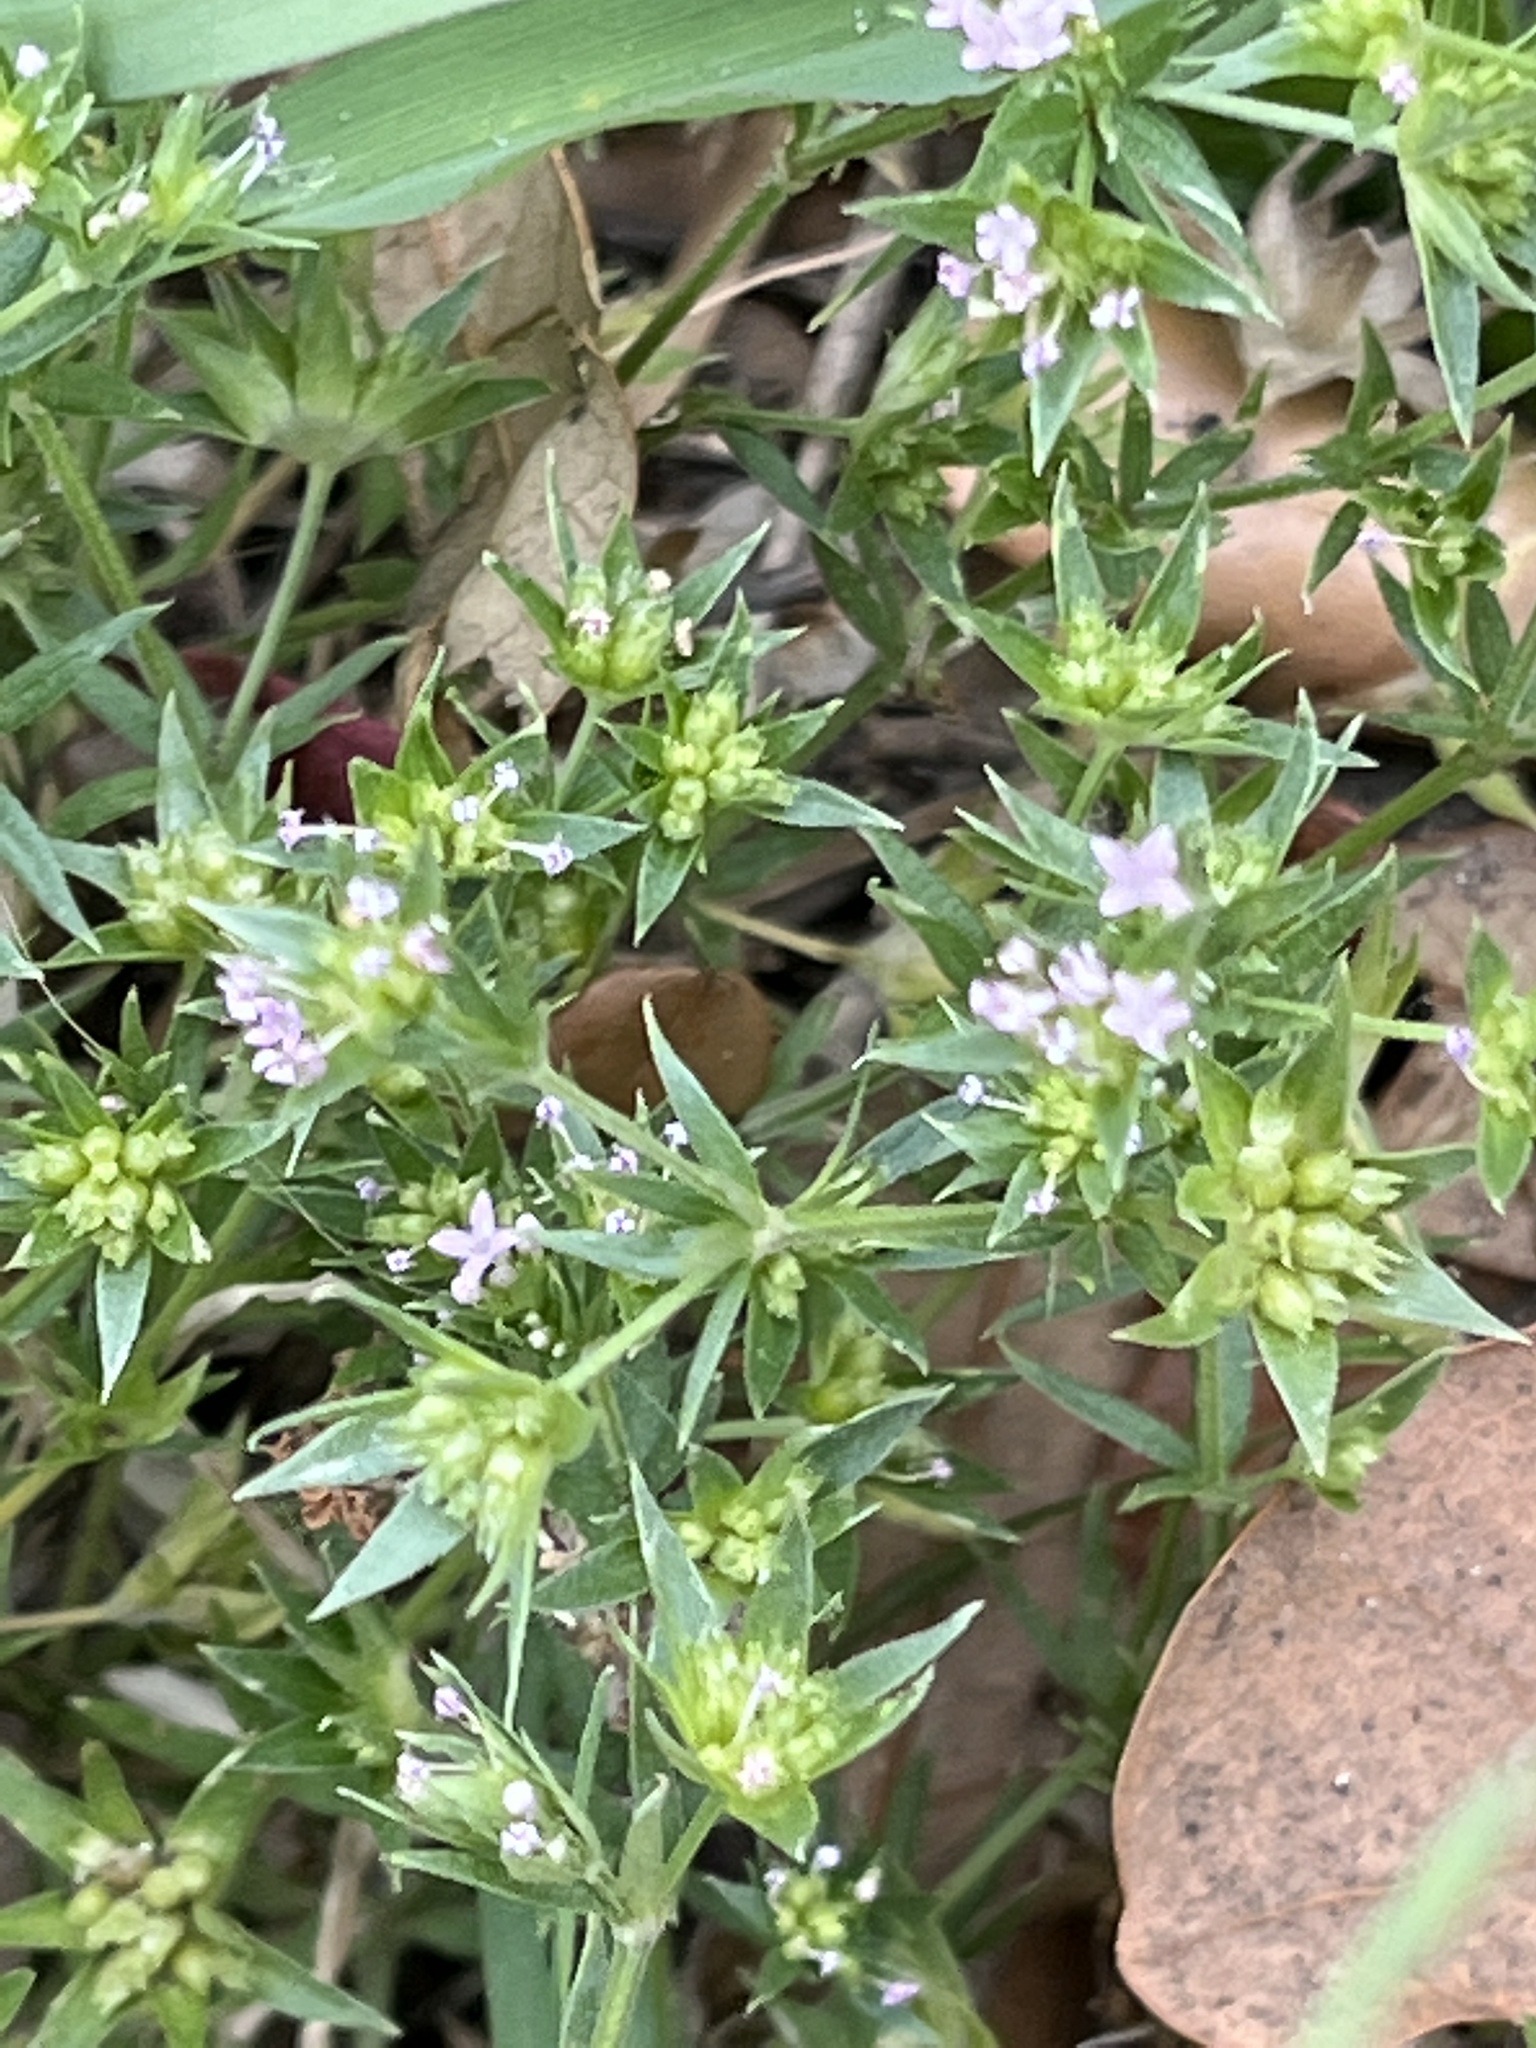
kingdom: Plantae
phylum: Tracheophyta
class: Magnoliopsida
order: Gentianales
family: Rubiaceae
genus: Sherardia
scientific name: Sherardia arvensis
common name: Field madder
